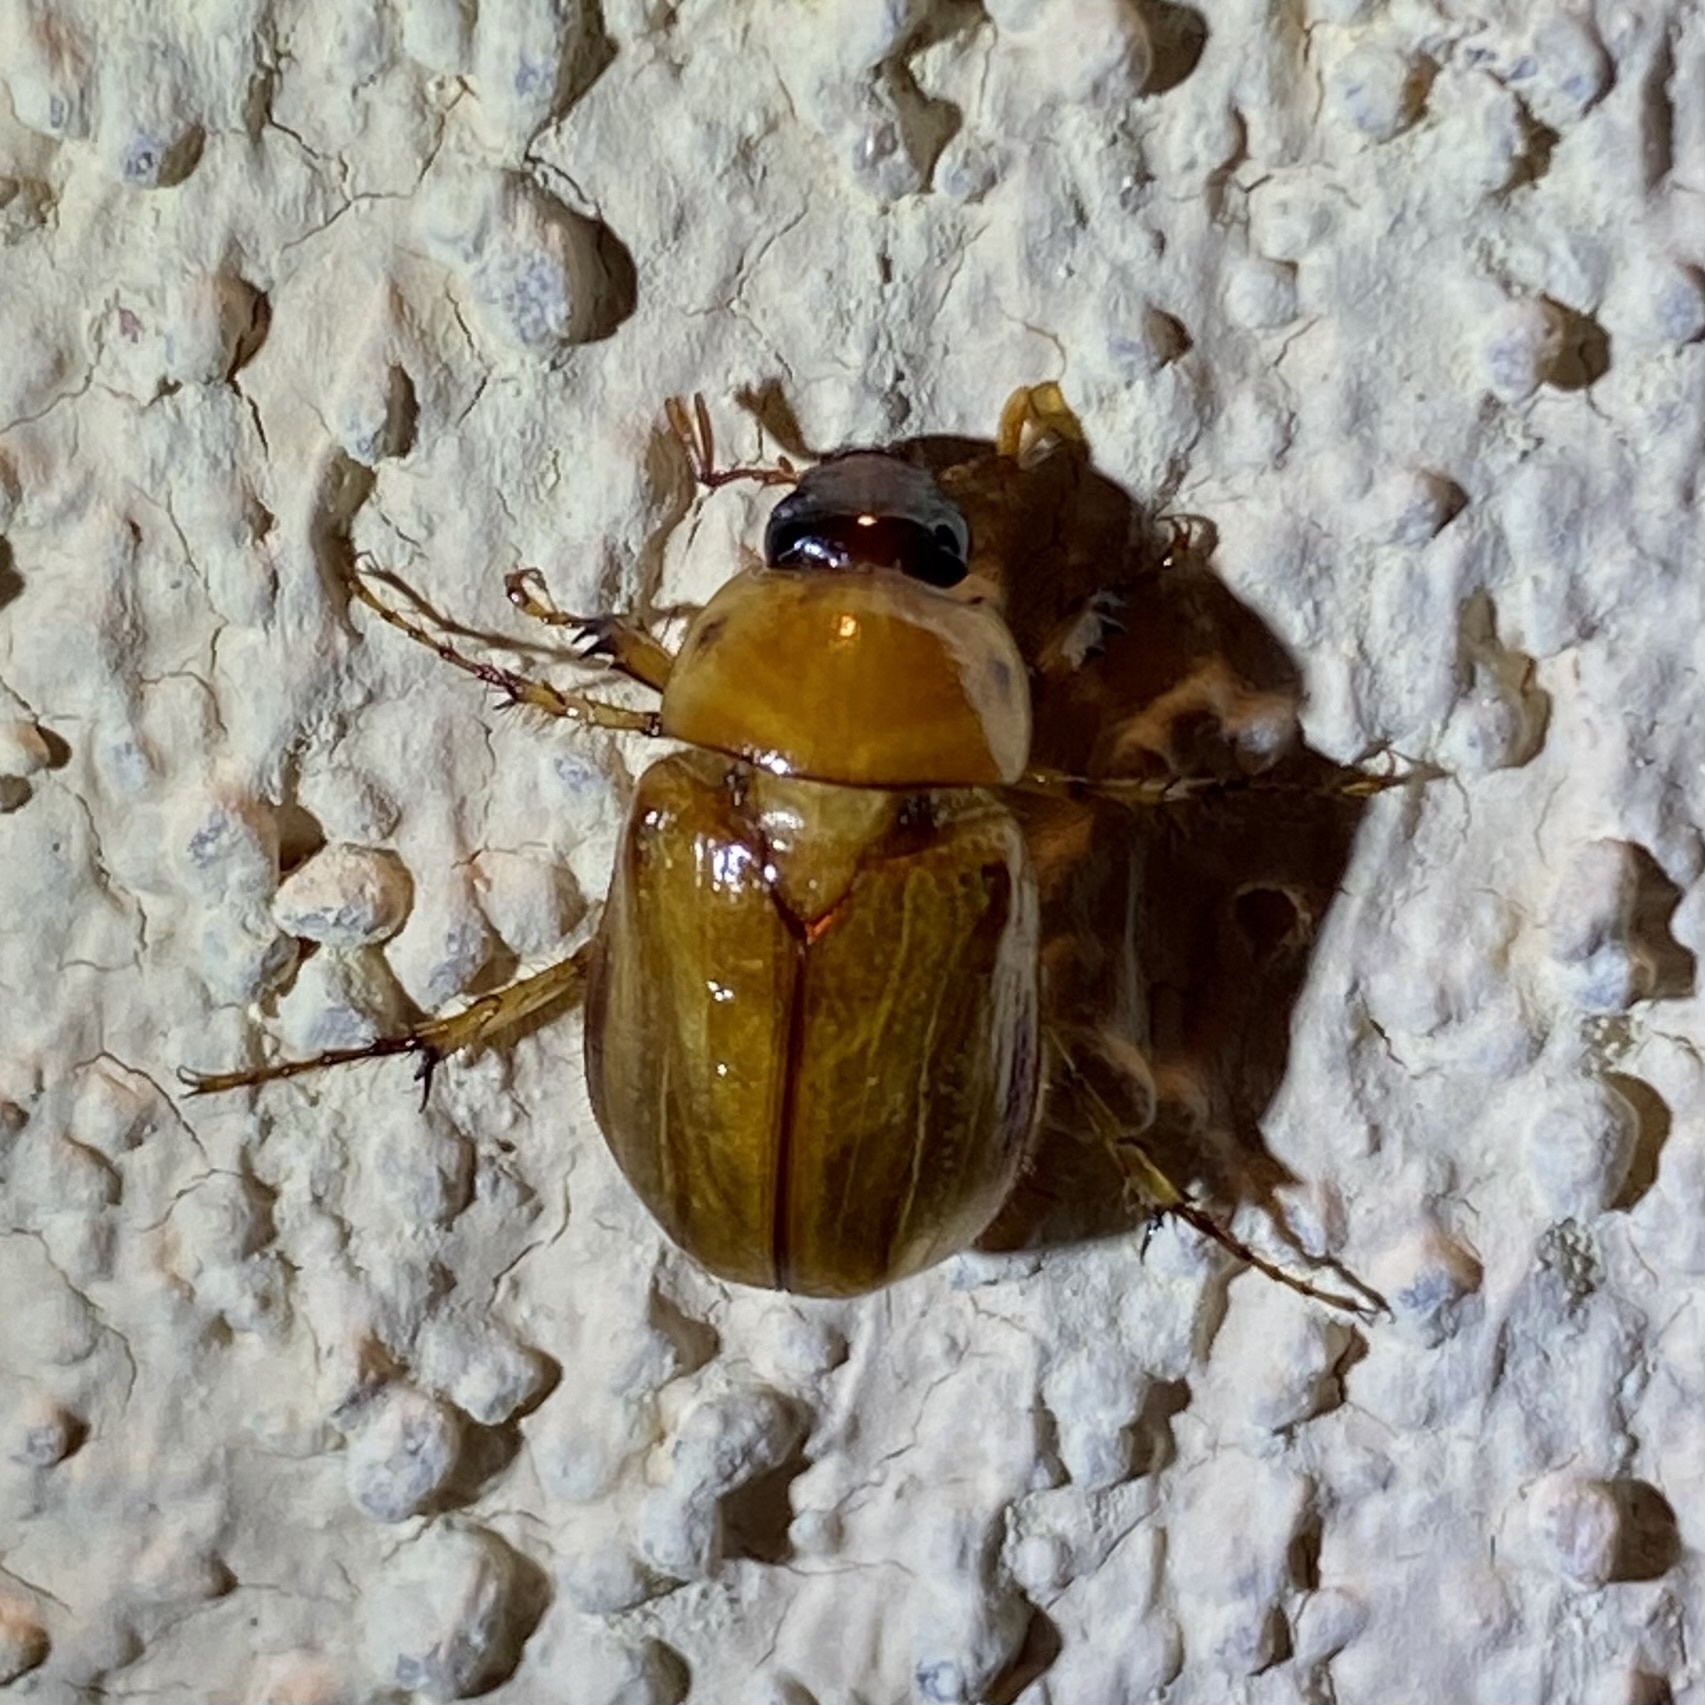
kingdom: Animalia
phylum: Arthropoda
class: Insecta
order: Coleoptera
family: Scarabaeidae
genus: Cyclocephala
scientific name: Cyclocephala pasadenae
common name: Pasadena masked chafer
